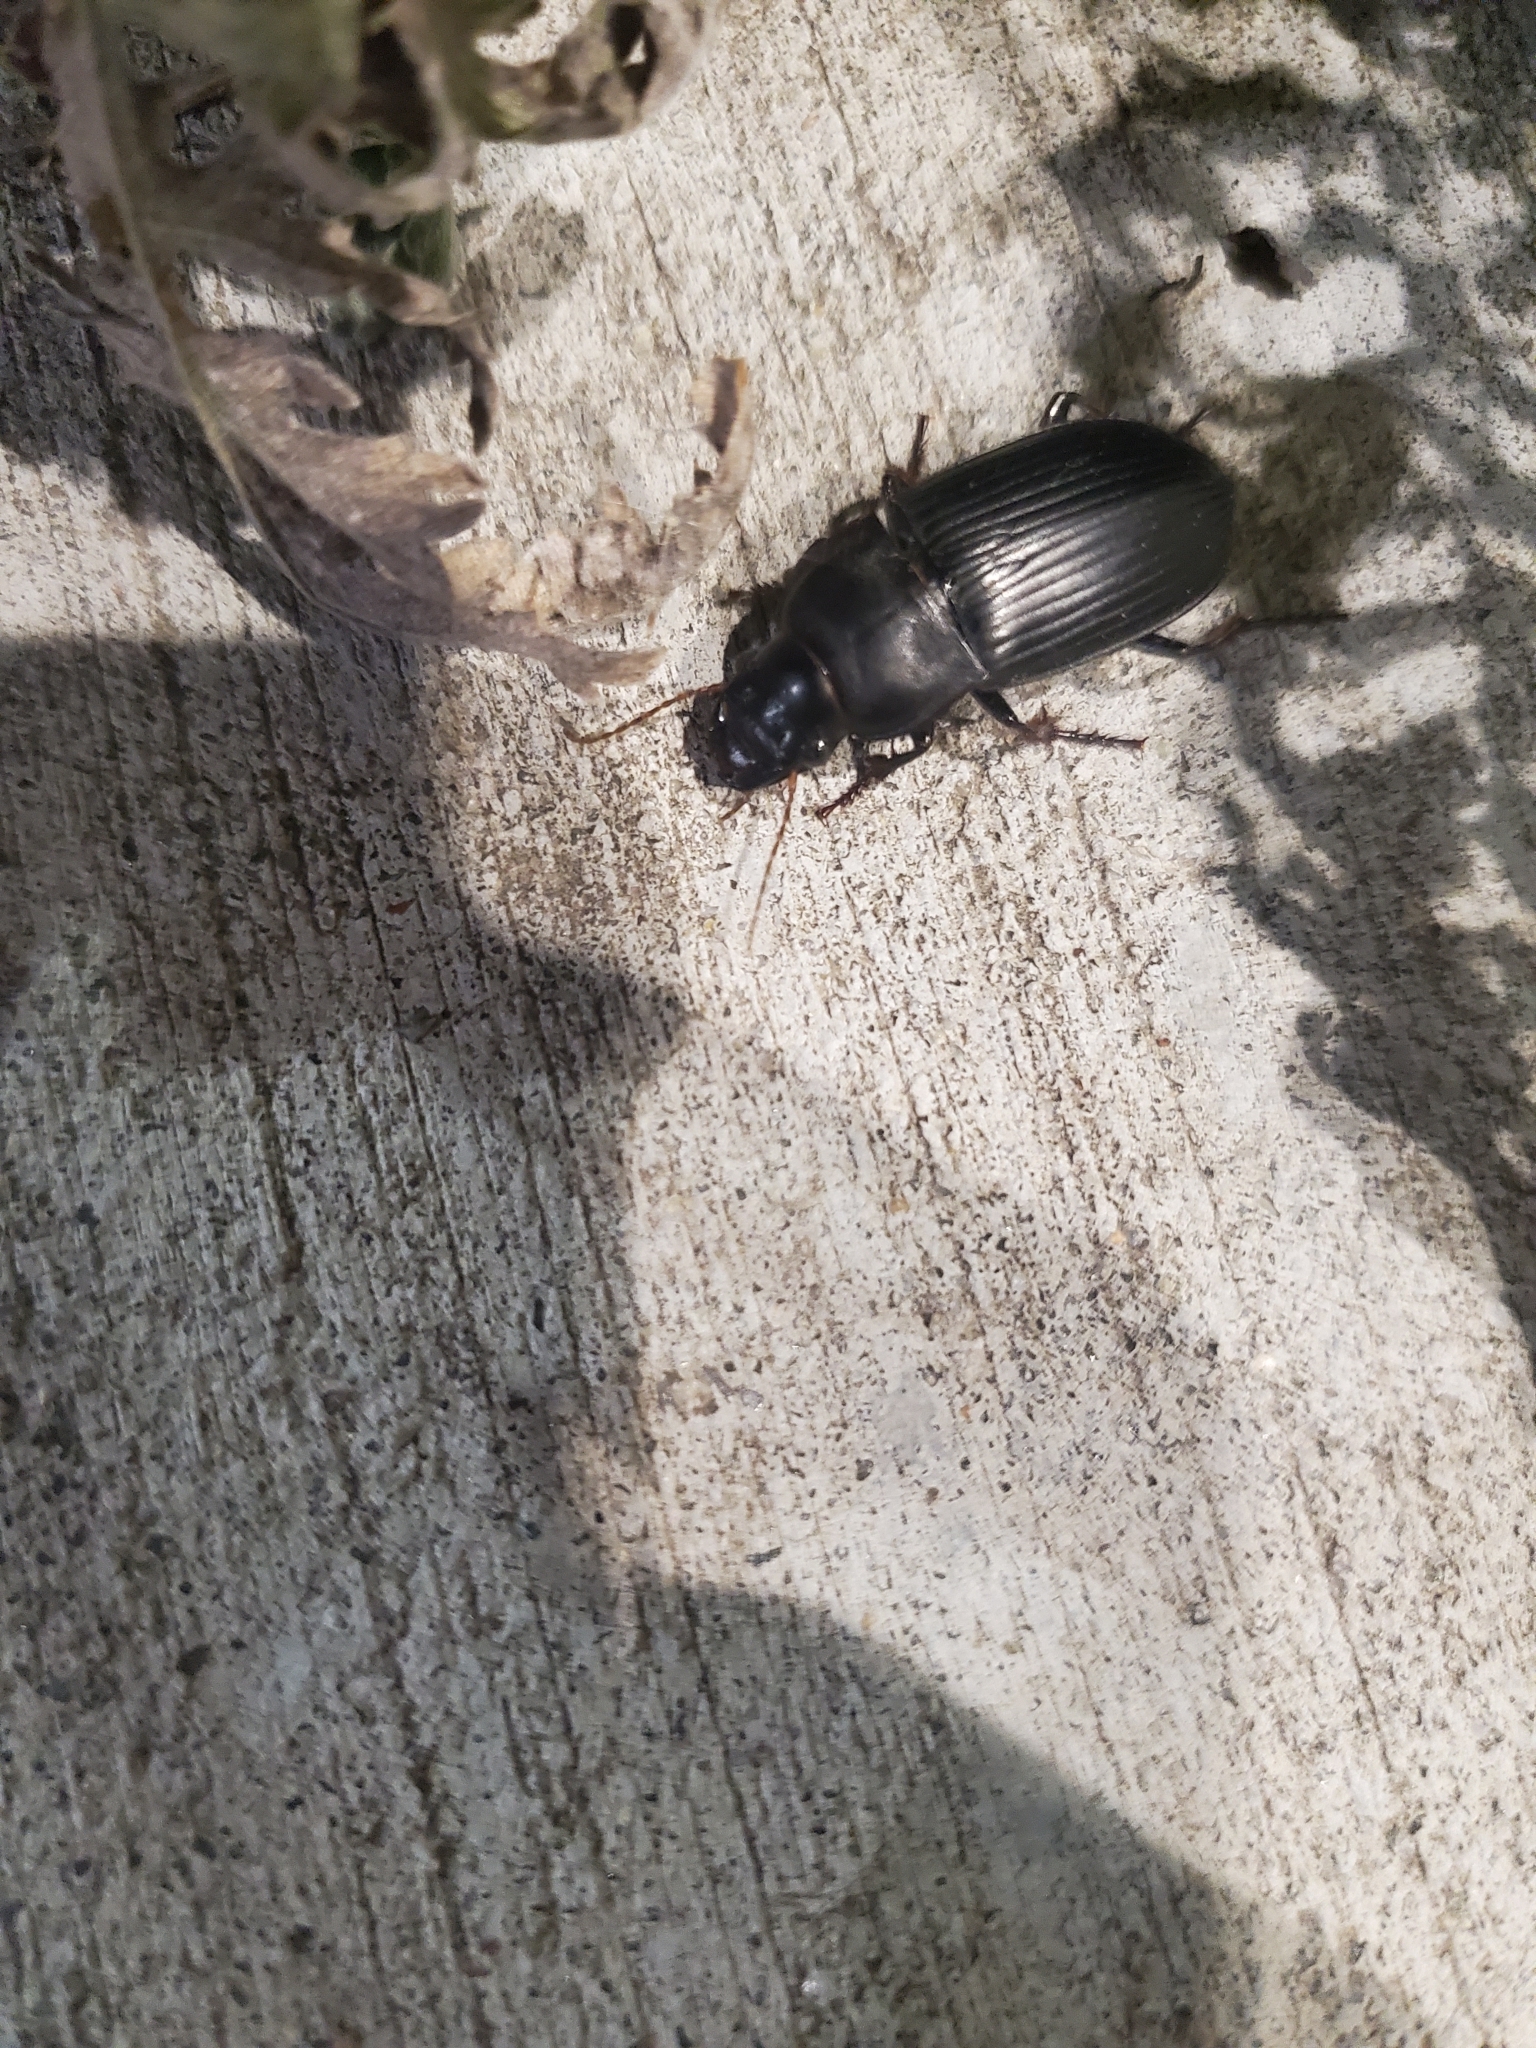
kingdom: Animalia
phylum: Arthropoda
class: Insecta
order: Coleoptera
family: Carabidae
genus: Harpalus
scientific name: Harpalus caliginosus
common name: Murky ground beetle
